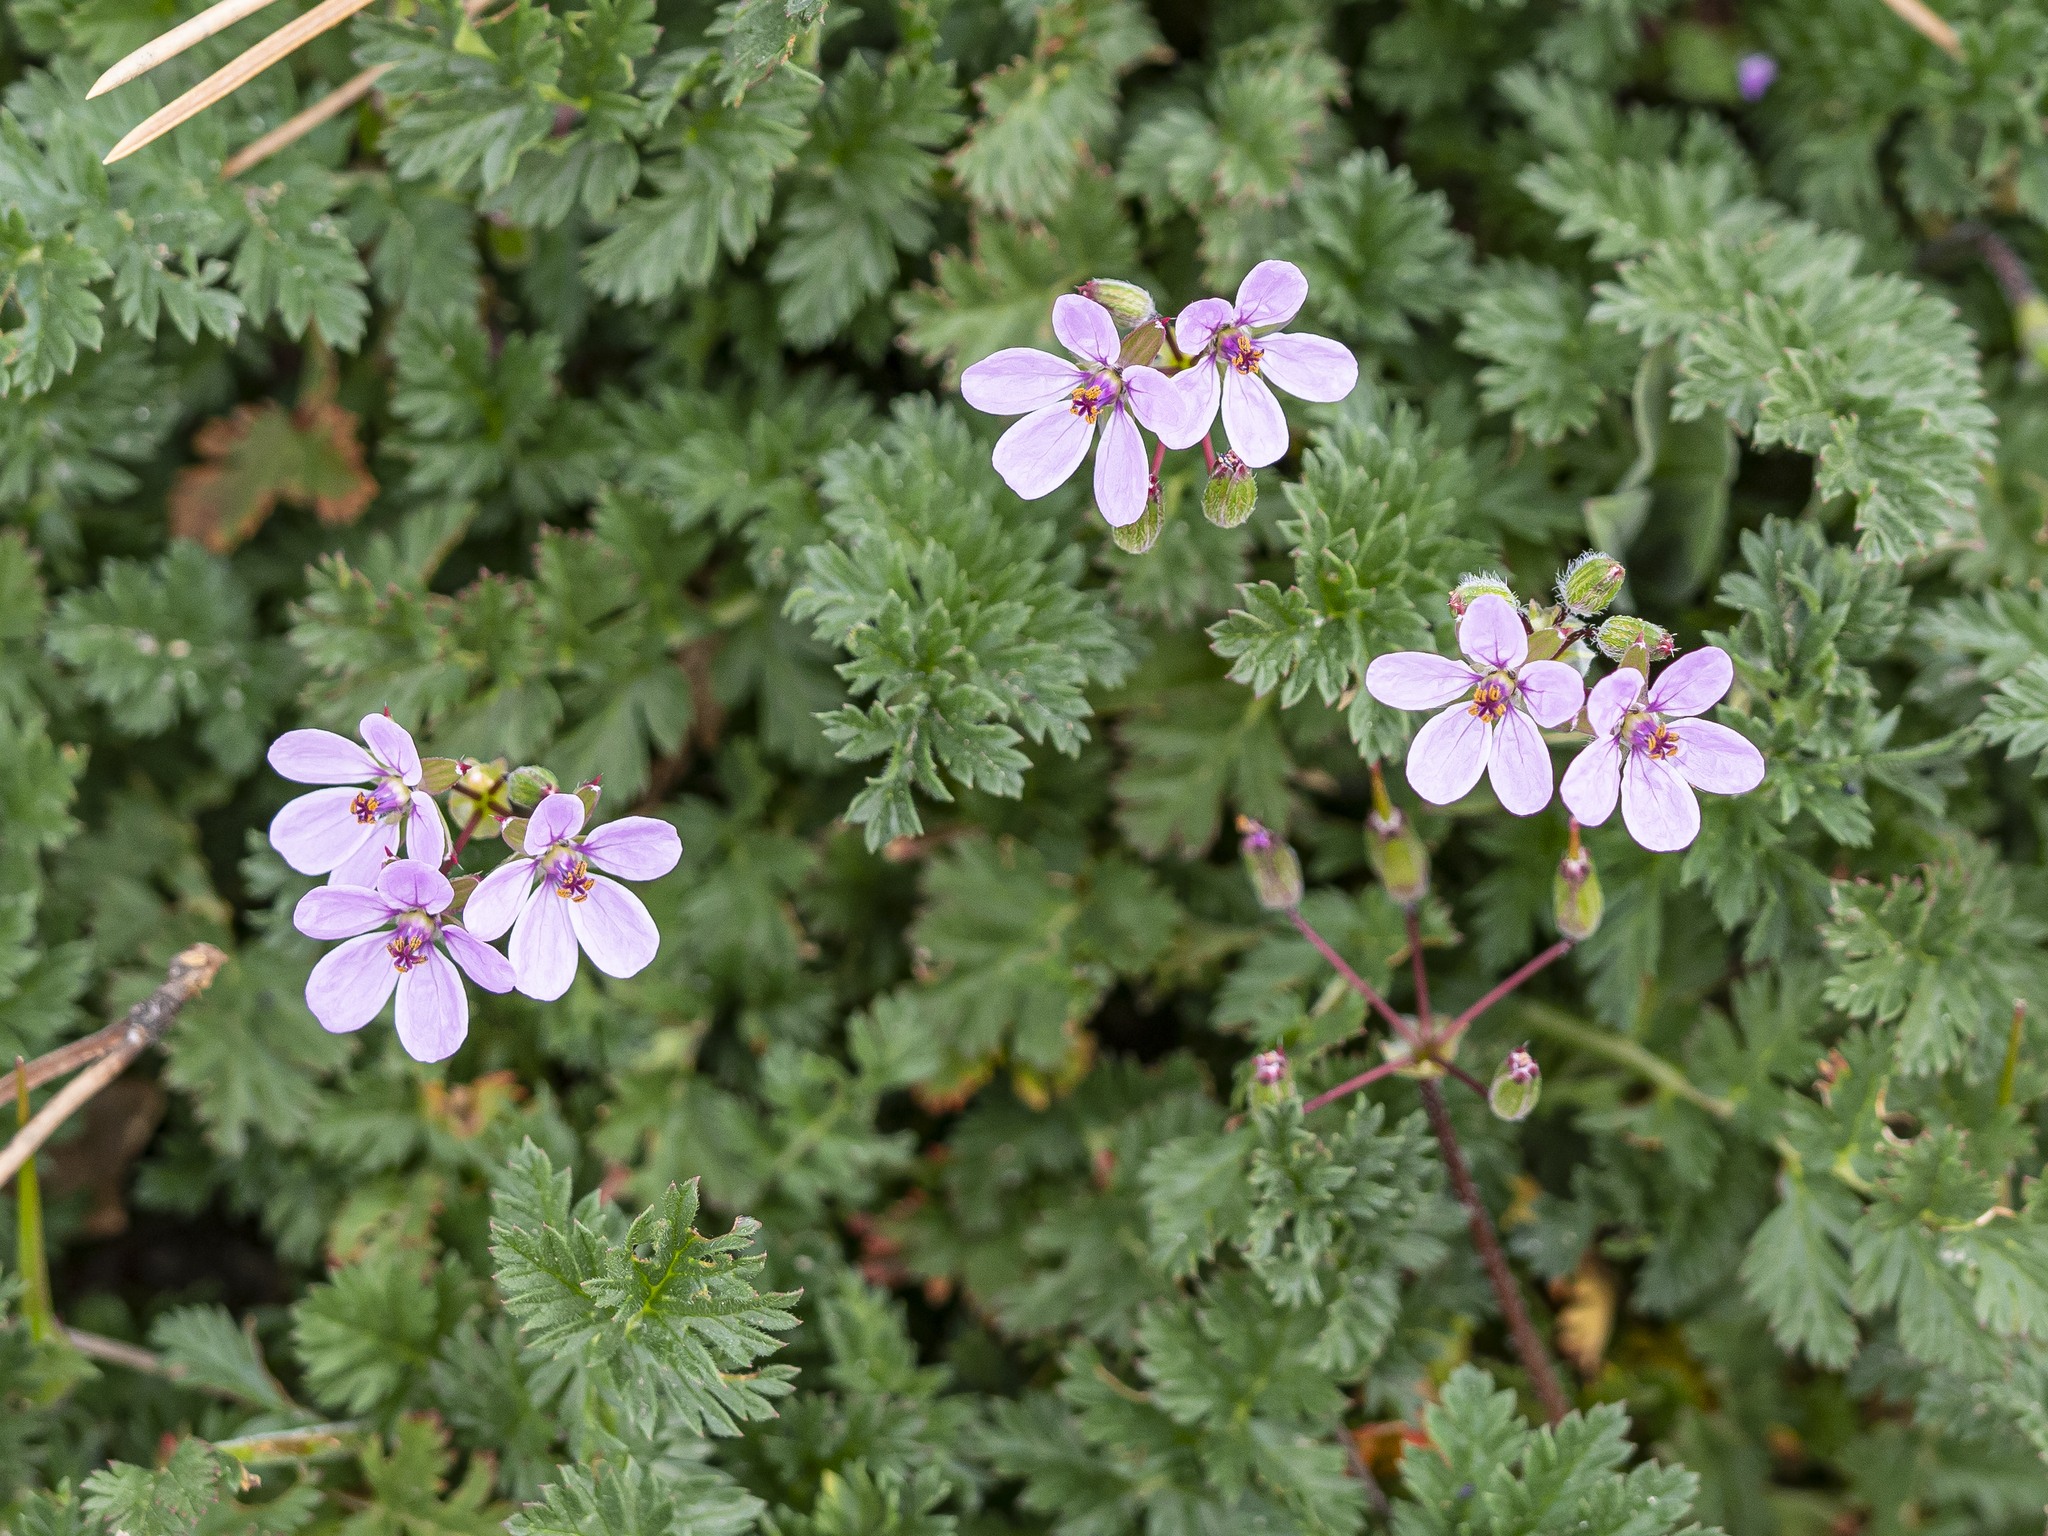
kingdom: Plantae
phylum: Tracheophyta
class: Magnoliopsida
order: Geraniales
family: Geraniaceae
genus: Erodium
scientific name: Erodium cicutarium
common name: Common stork's-bill
